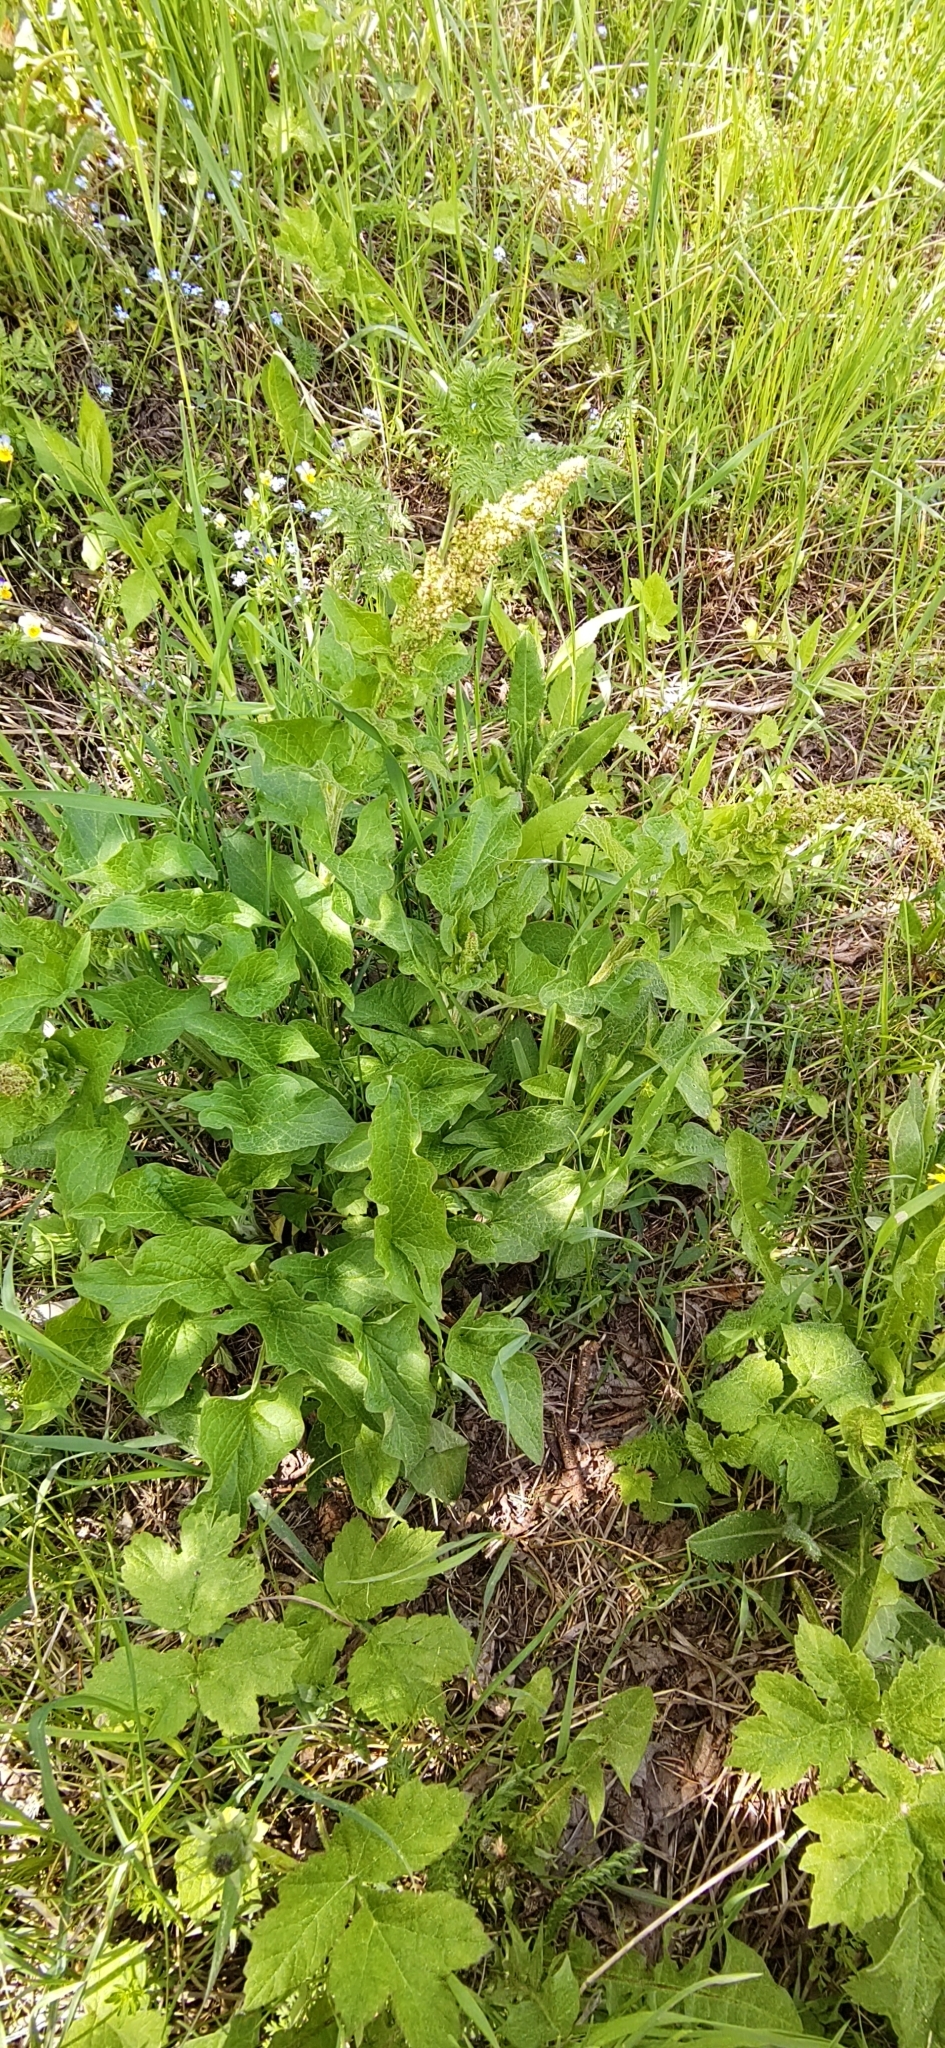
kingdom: Plantae
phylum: Tracheophyta
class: Magnoliopsida
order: Caryophyllales
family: Amaranthaceae
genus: Blitum
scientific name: Blitum bonus-henricus
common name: Good king henry
